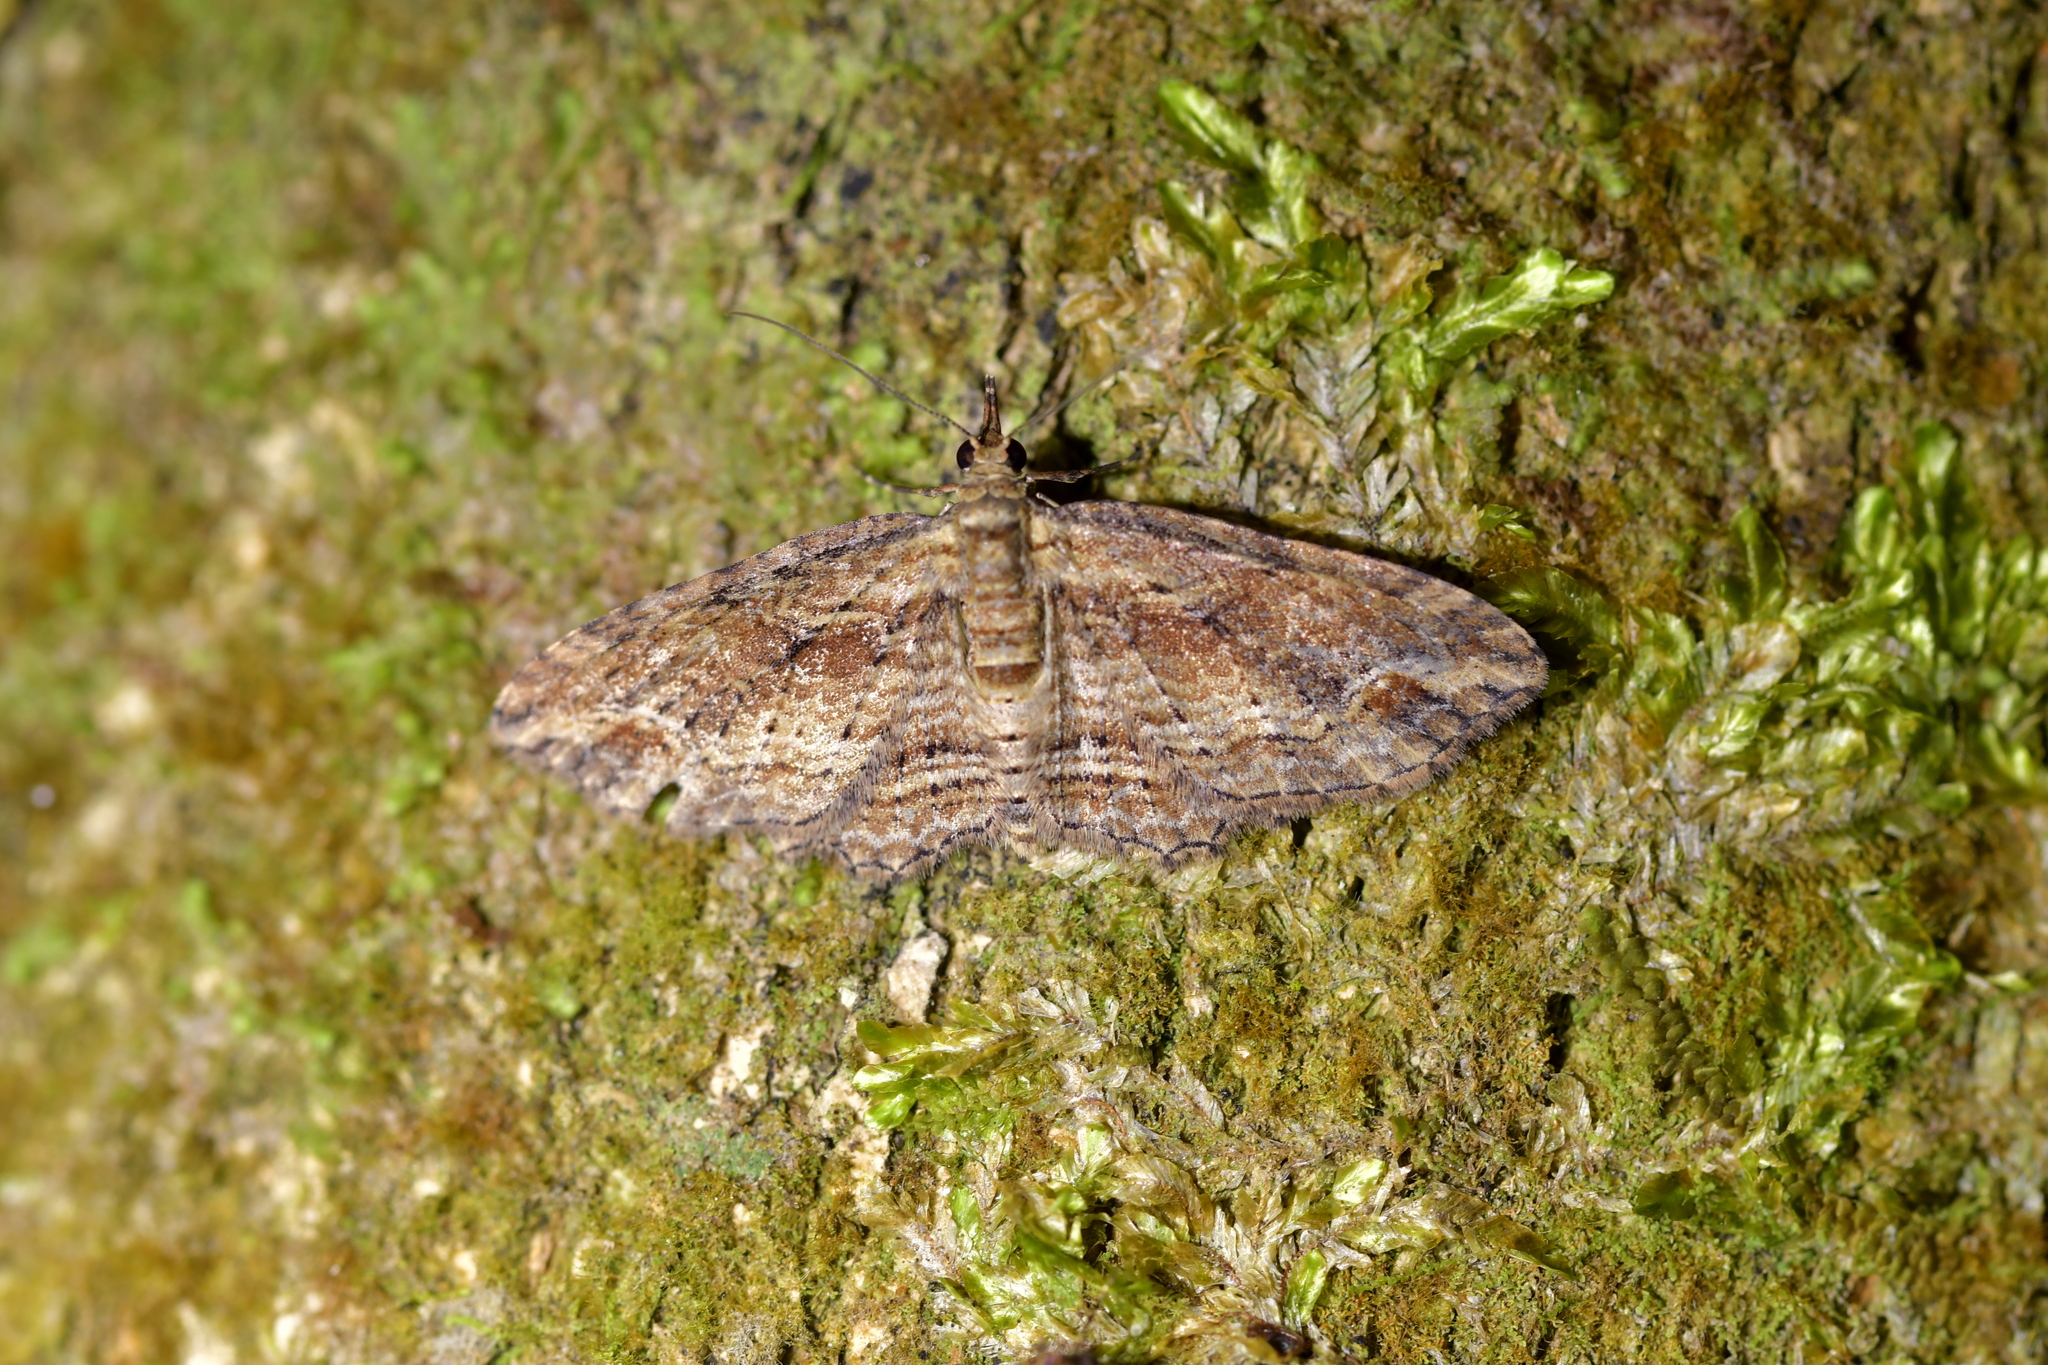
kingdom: Animalia
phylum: Arthropoda
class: Insecta
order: Lepidoptera
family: Geometridae
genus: Chloroclystis
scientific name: Chloroclystis filata
